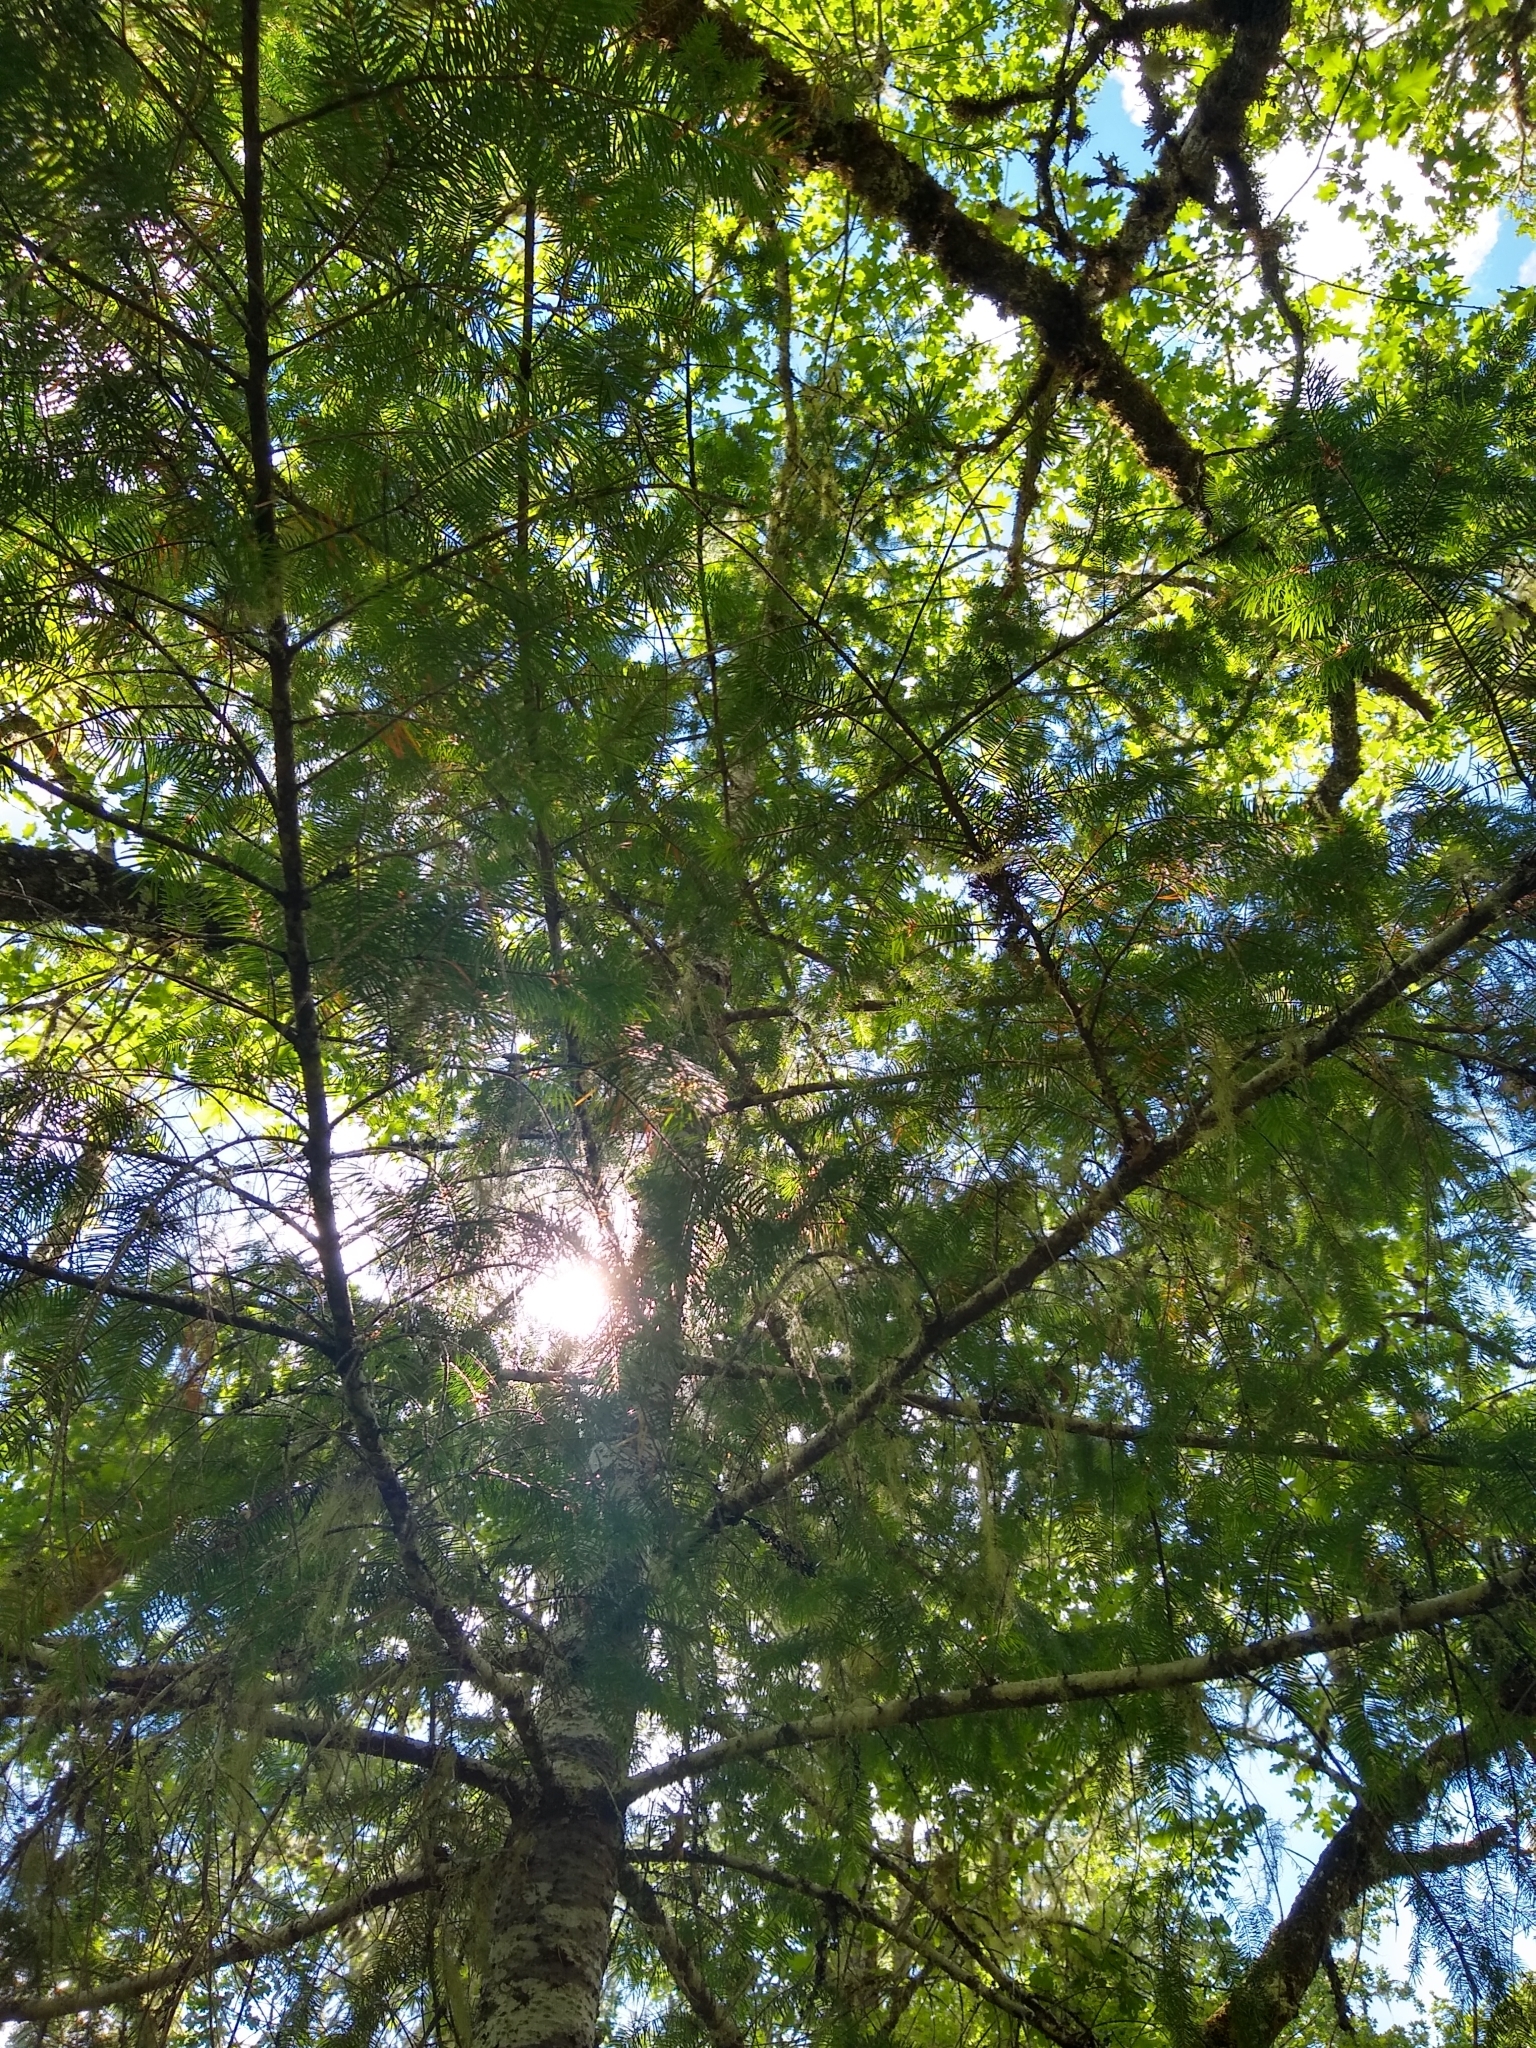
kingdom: Plantae
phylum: Tracheophyta
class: Pinopsida
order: Pinales
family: Pinaceae
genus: Pseudotsuga
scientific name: Pseudotsuga menziesii
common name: Douglas fir
